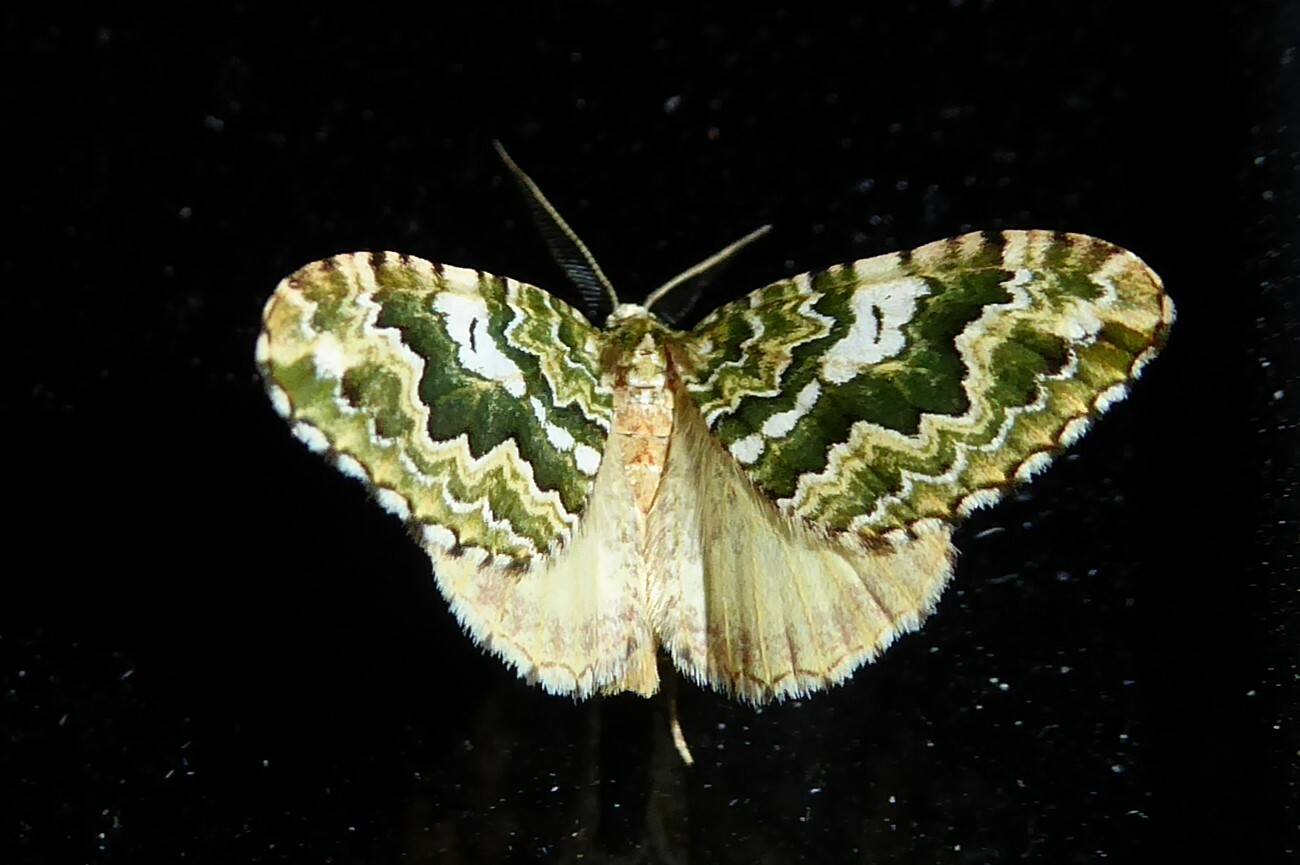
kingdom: Animalia
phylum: Arthropoda
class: Insecta
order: Lepidoptera
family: Geometridae
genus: Asaphodes
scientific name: Asaphodes beata
